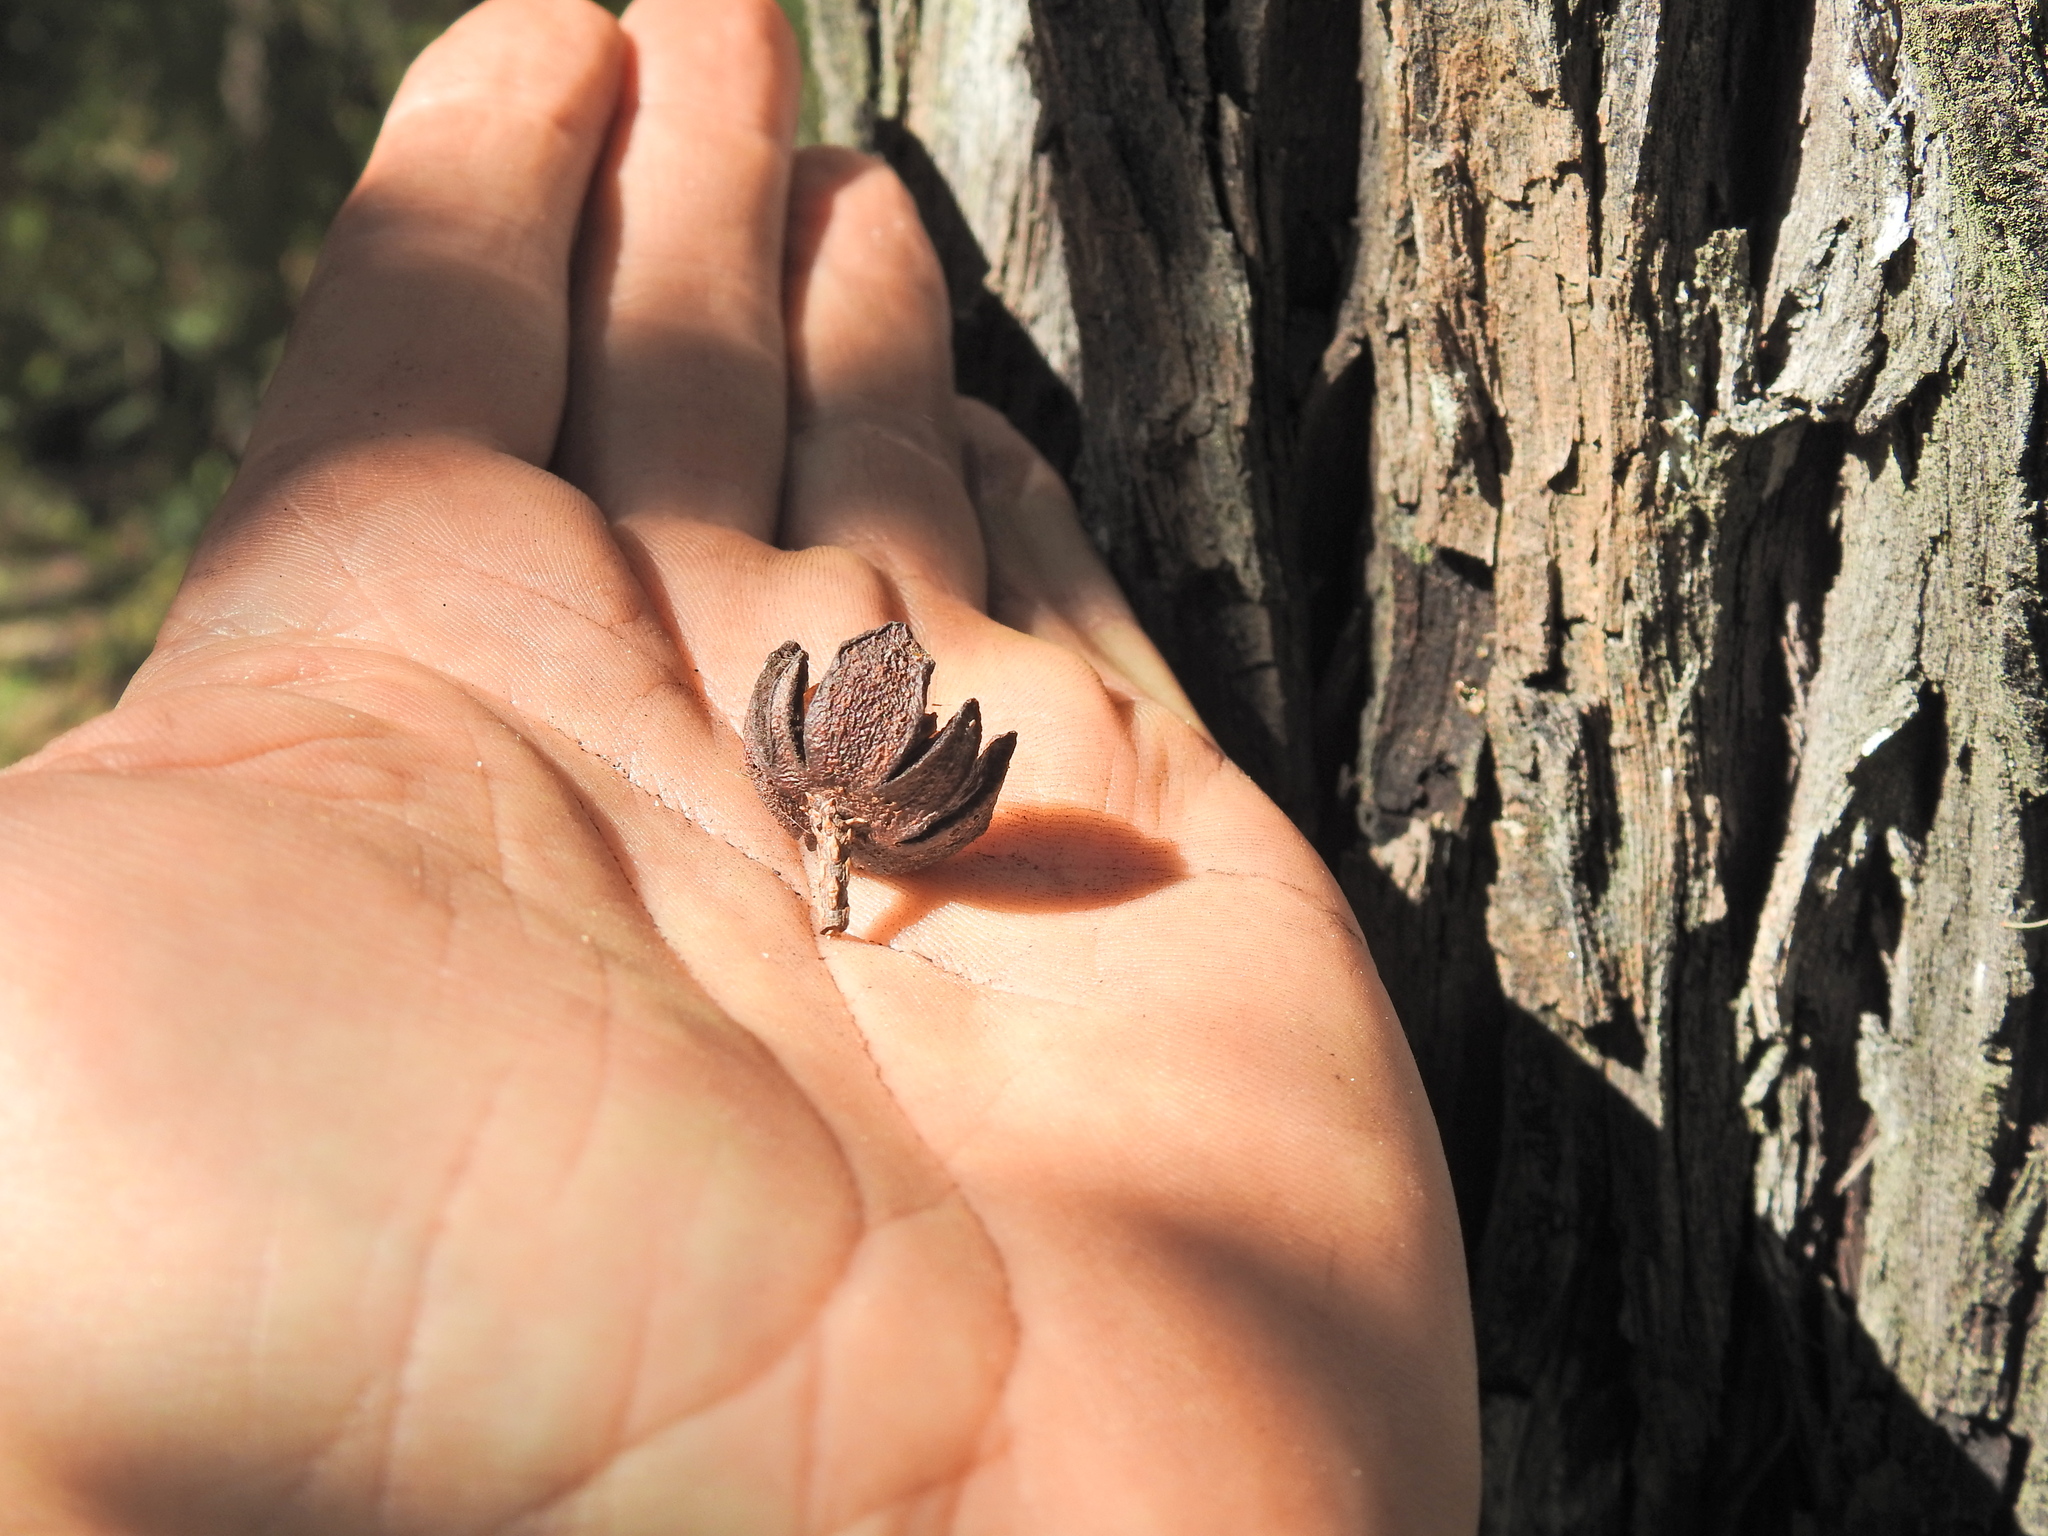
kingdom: Plantae
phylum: Tracheophyta
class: Pinopsida
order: Pinales
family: Cupressaceae
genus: Callitris
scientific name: Callitris columellaris
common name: White cypress-pine
